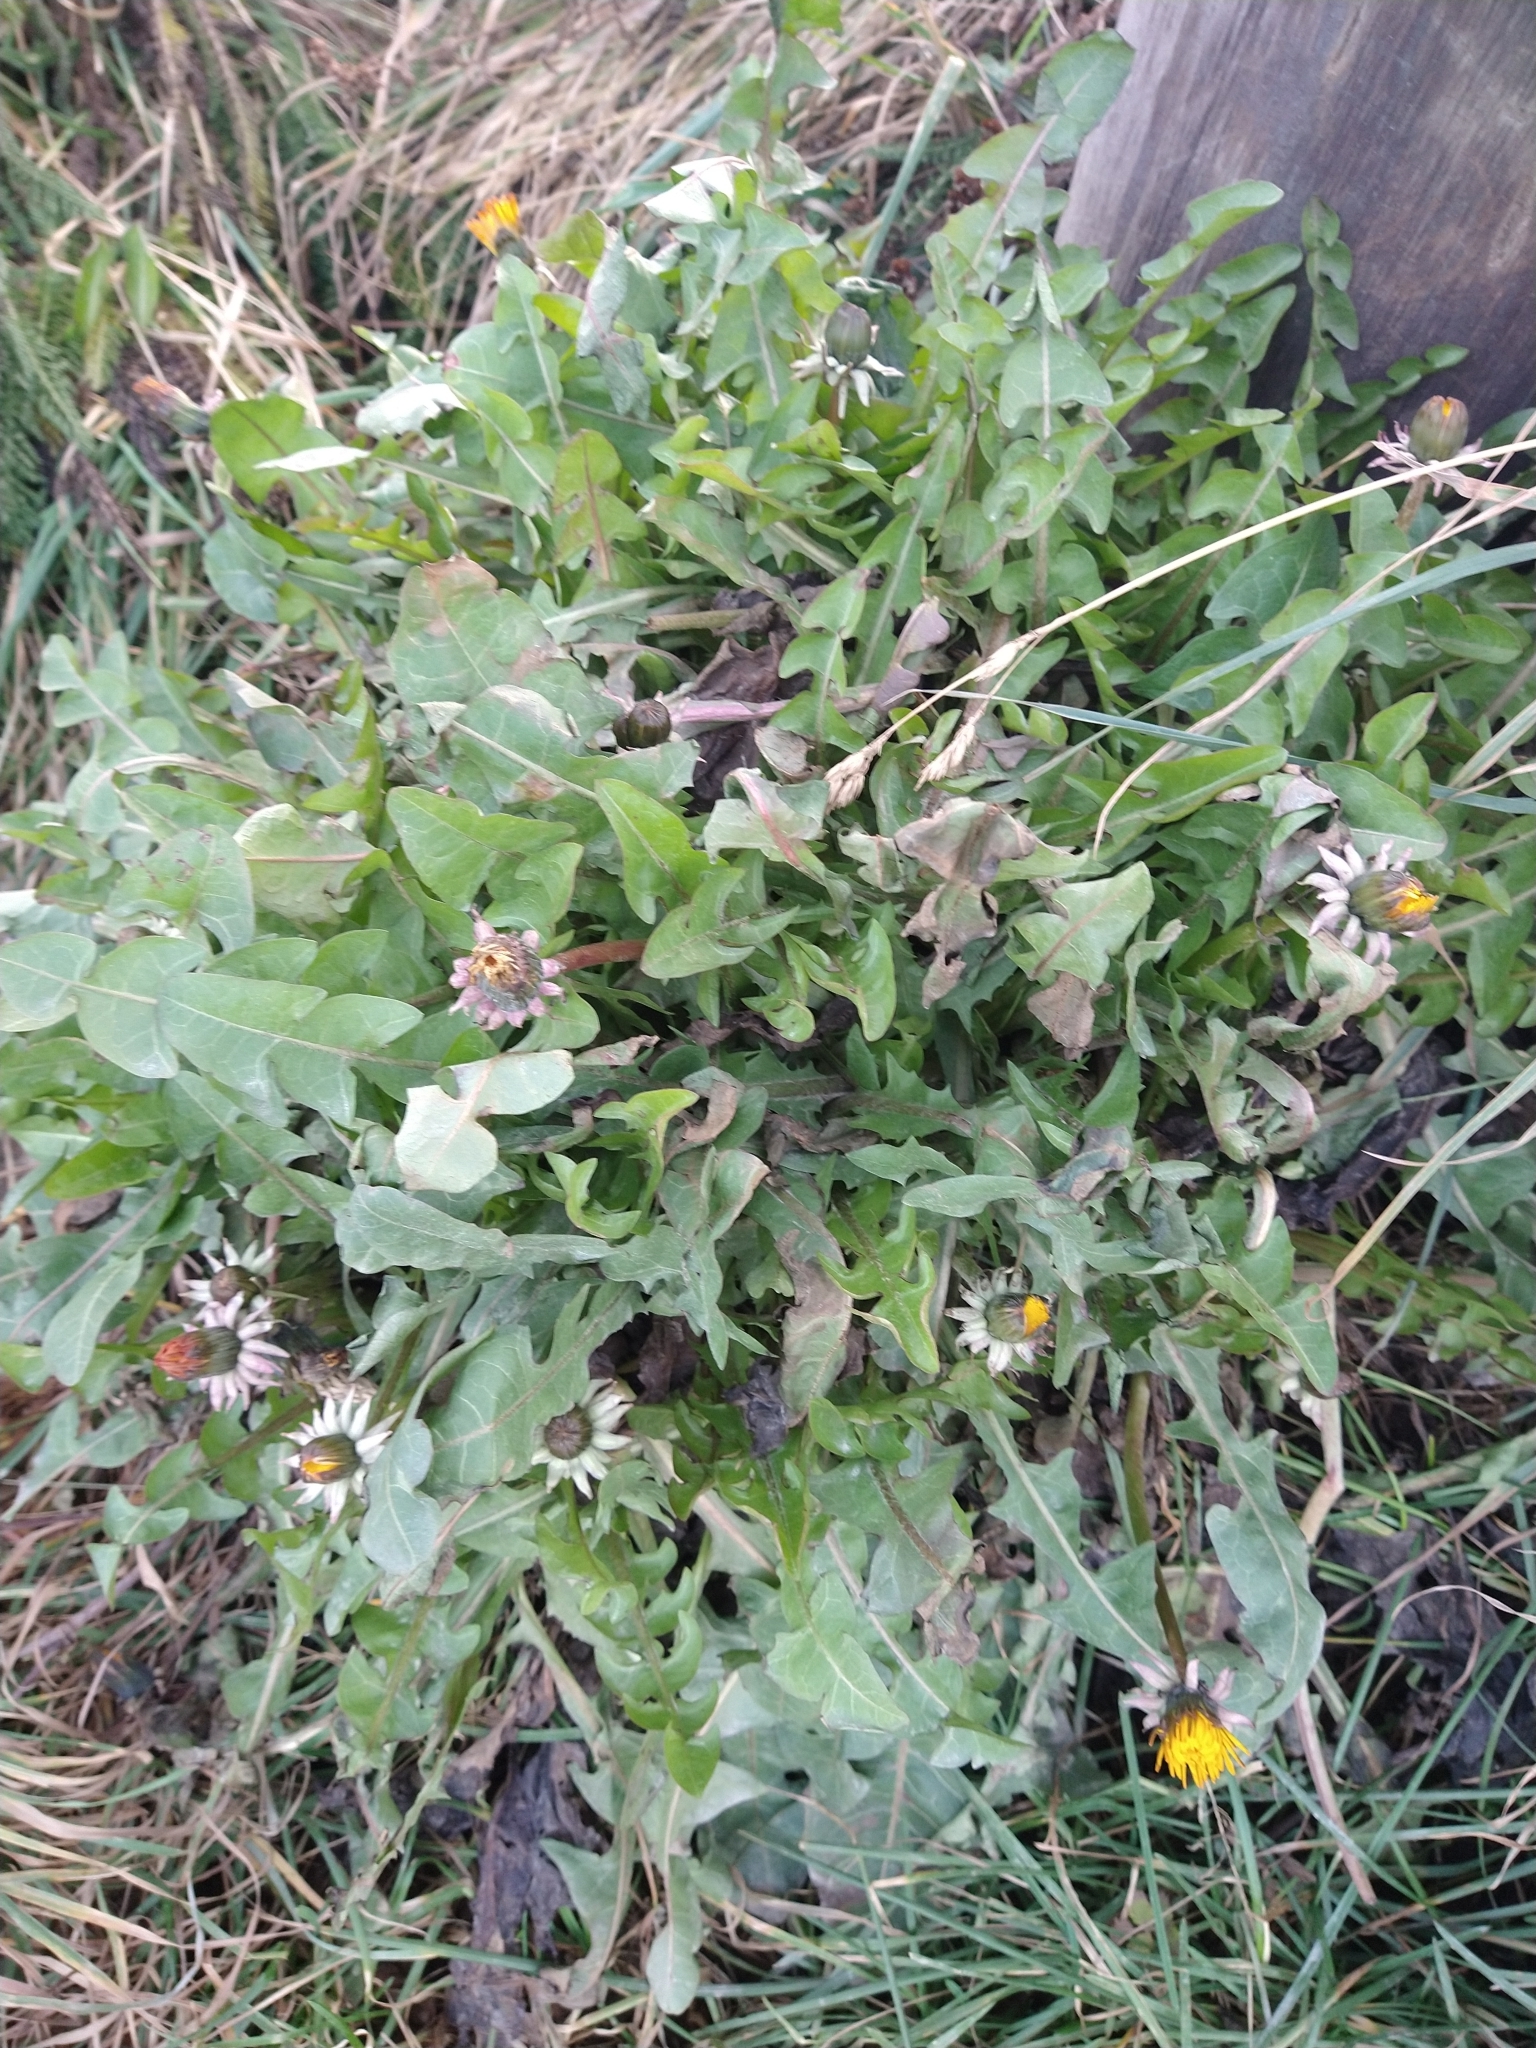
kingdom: Plantae
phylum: Tracheophyta
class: Magnoliopsida
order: Asterales
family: Asteraceae
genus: Taraxacum
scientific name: Taraxacum officinale
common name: Common dandelion
